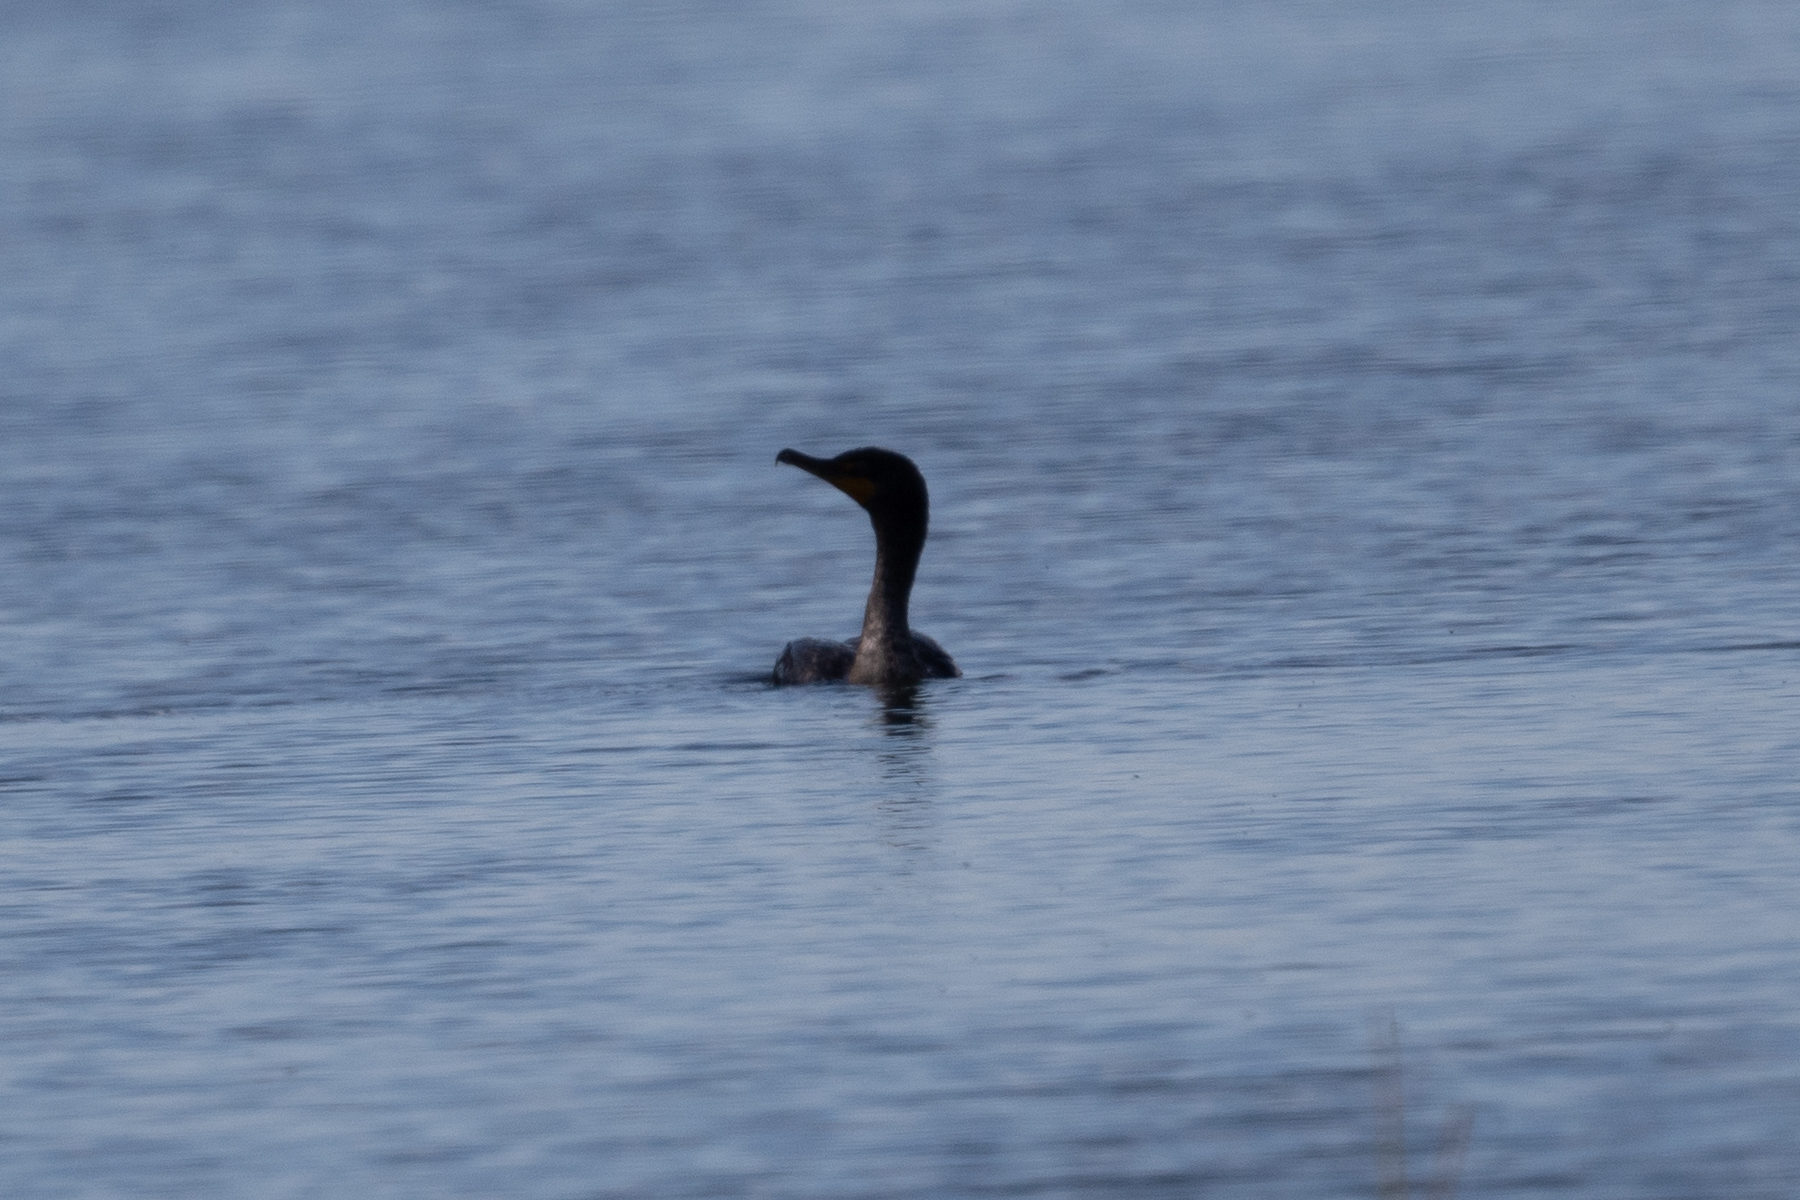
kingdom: Animalia
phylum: Chordata
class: Aves
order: Suliformes
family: Phalacrocoracidae
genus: Phalacrocorax
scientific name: Phalacrocorax auritus
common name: Double-crested cormorant
